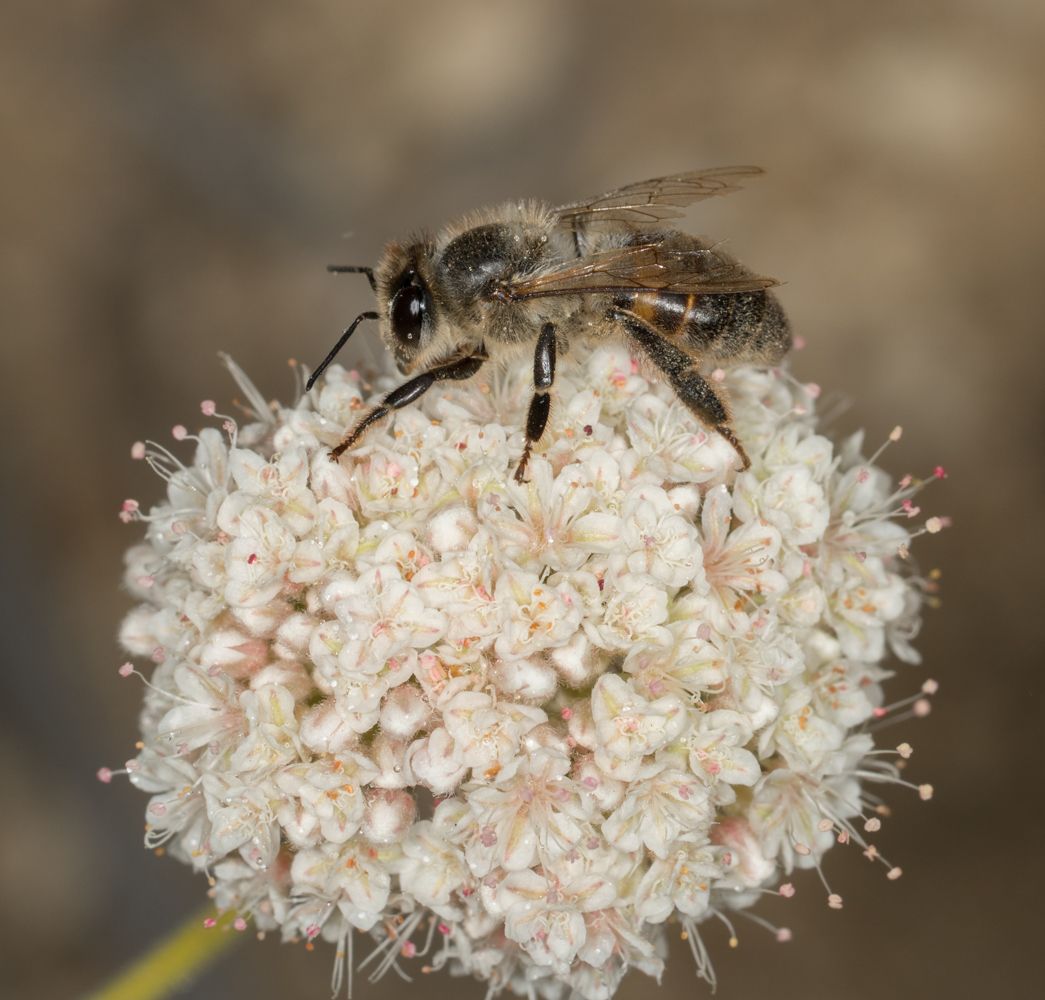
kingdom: Animalia
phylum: Arthropoda
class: Insecta
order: Hymenoptera
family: Apidae
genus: Apis
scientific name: Apis mellifera
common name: Honey bee
